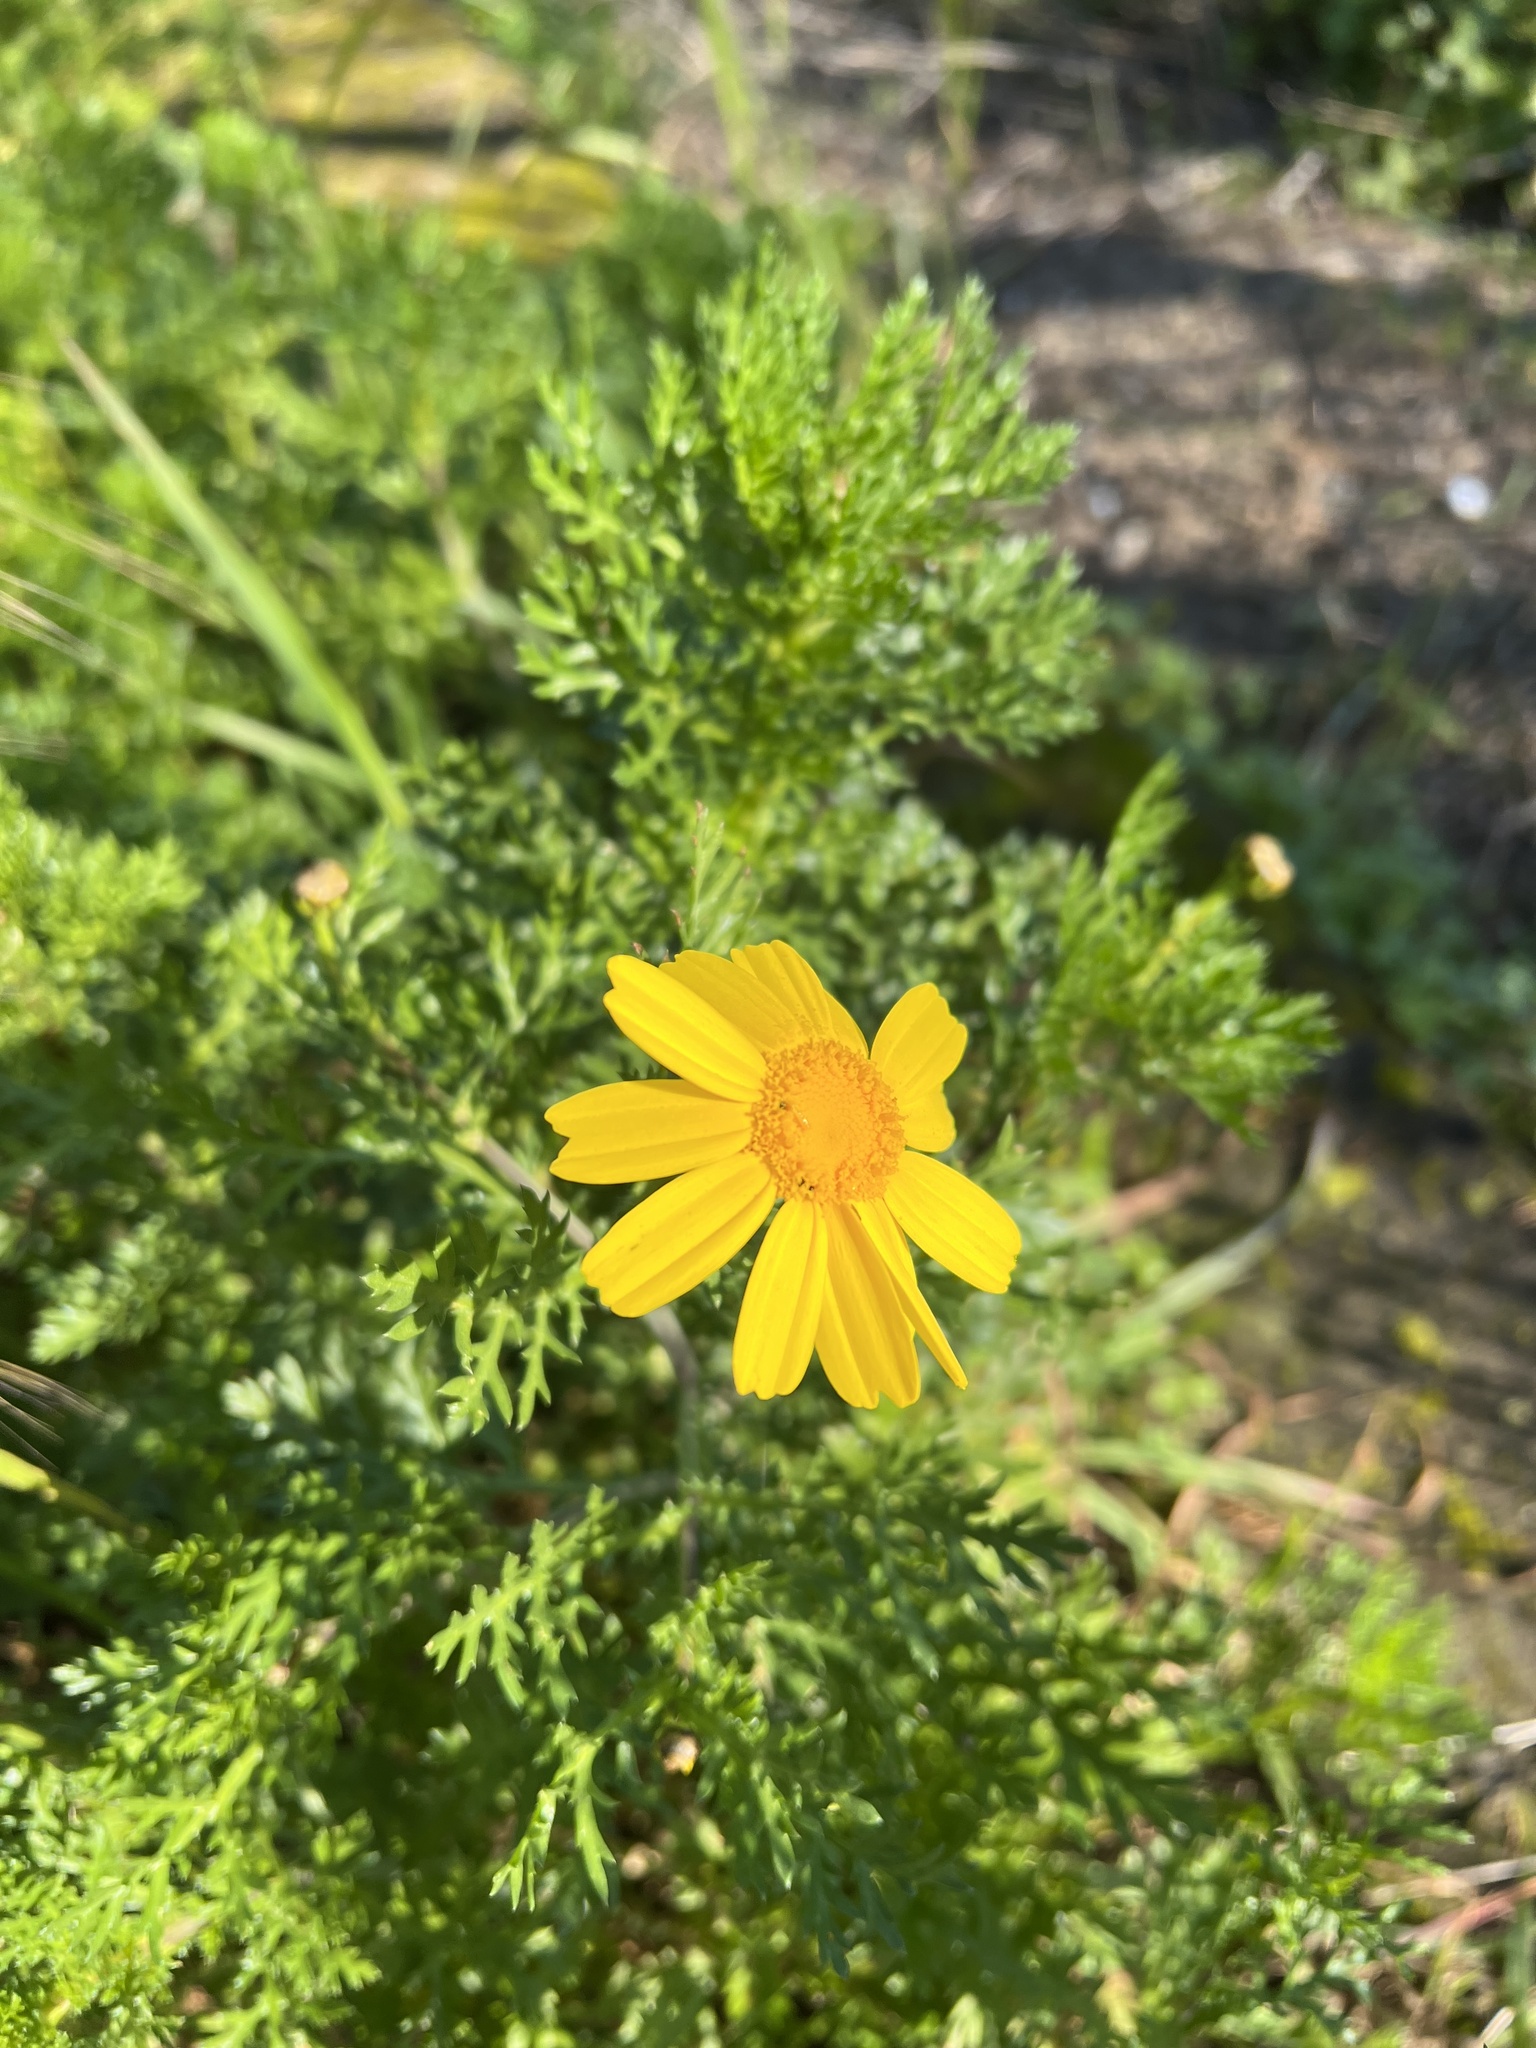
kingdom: Plantae
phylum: Tracheophyta
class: Magnoliopsida
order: Asterales
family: Asteraceae
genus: Glebionis
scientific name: Glebionis coronaria
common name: Crowndaisy
